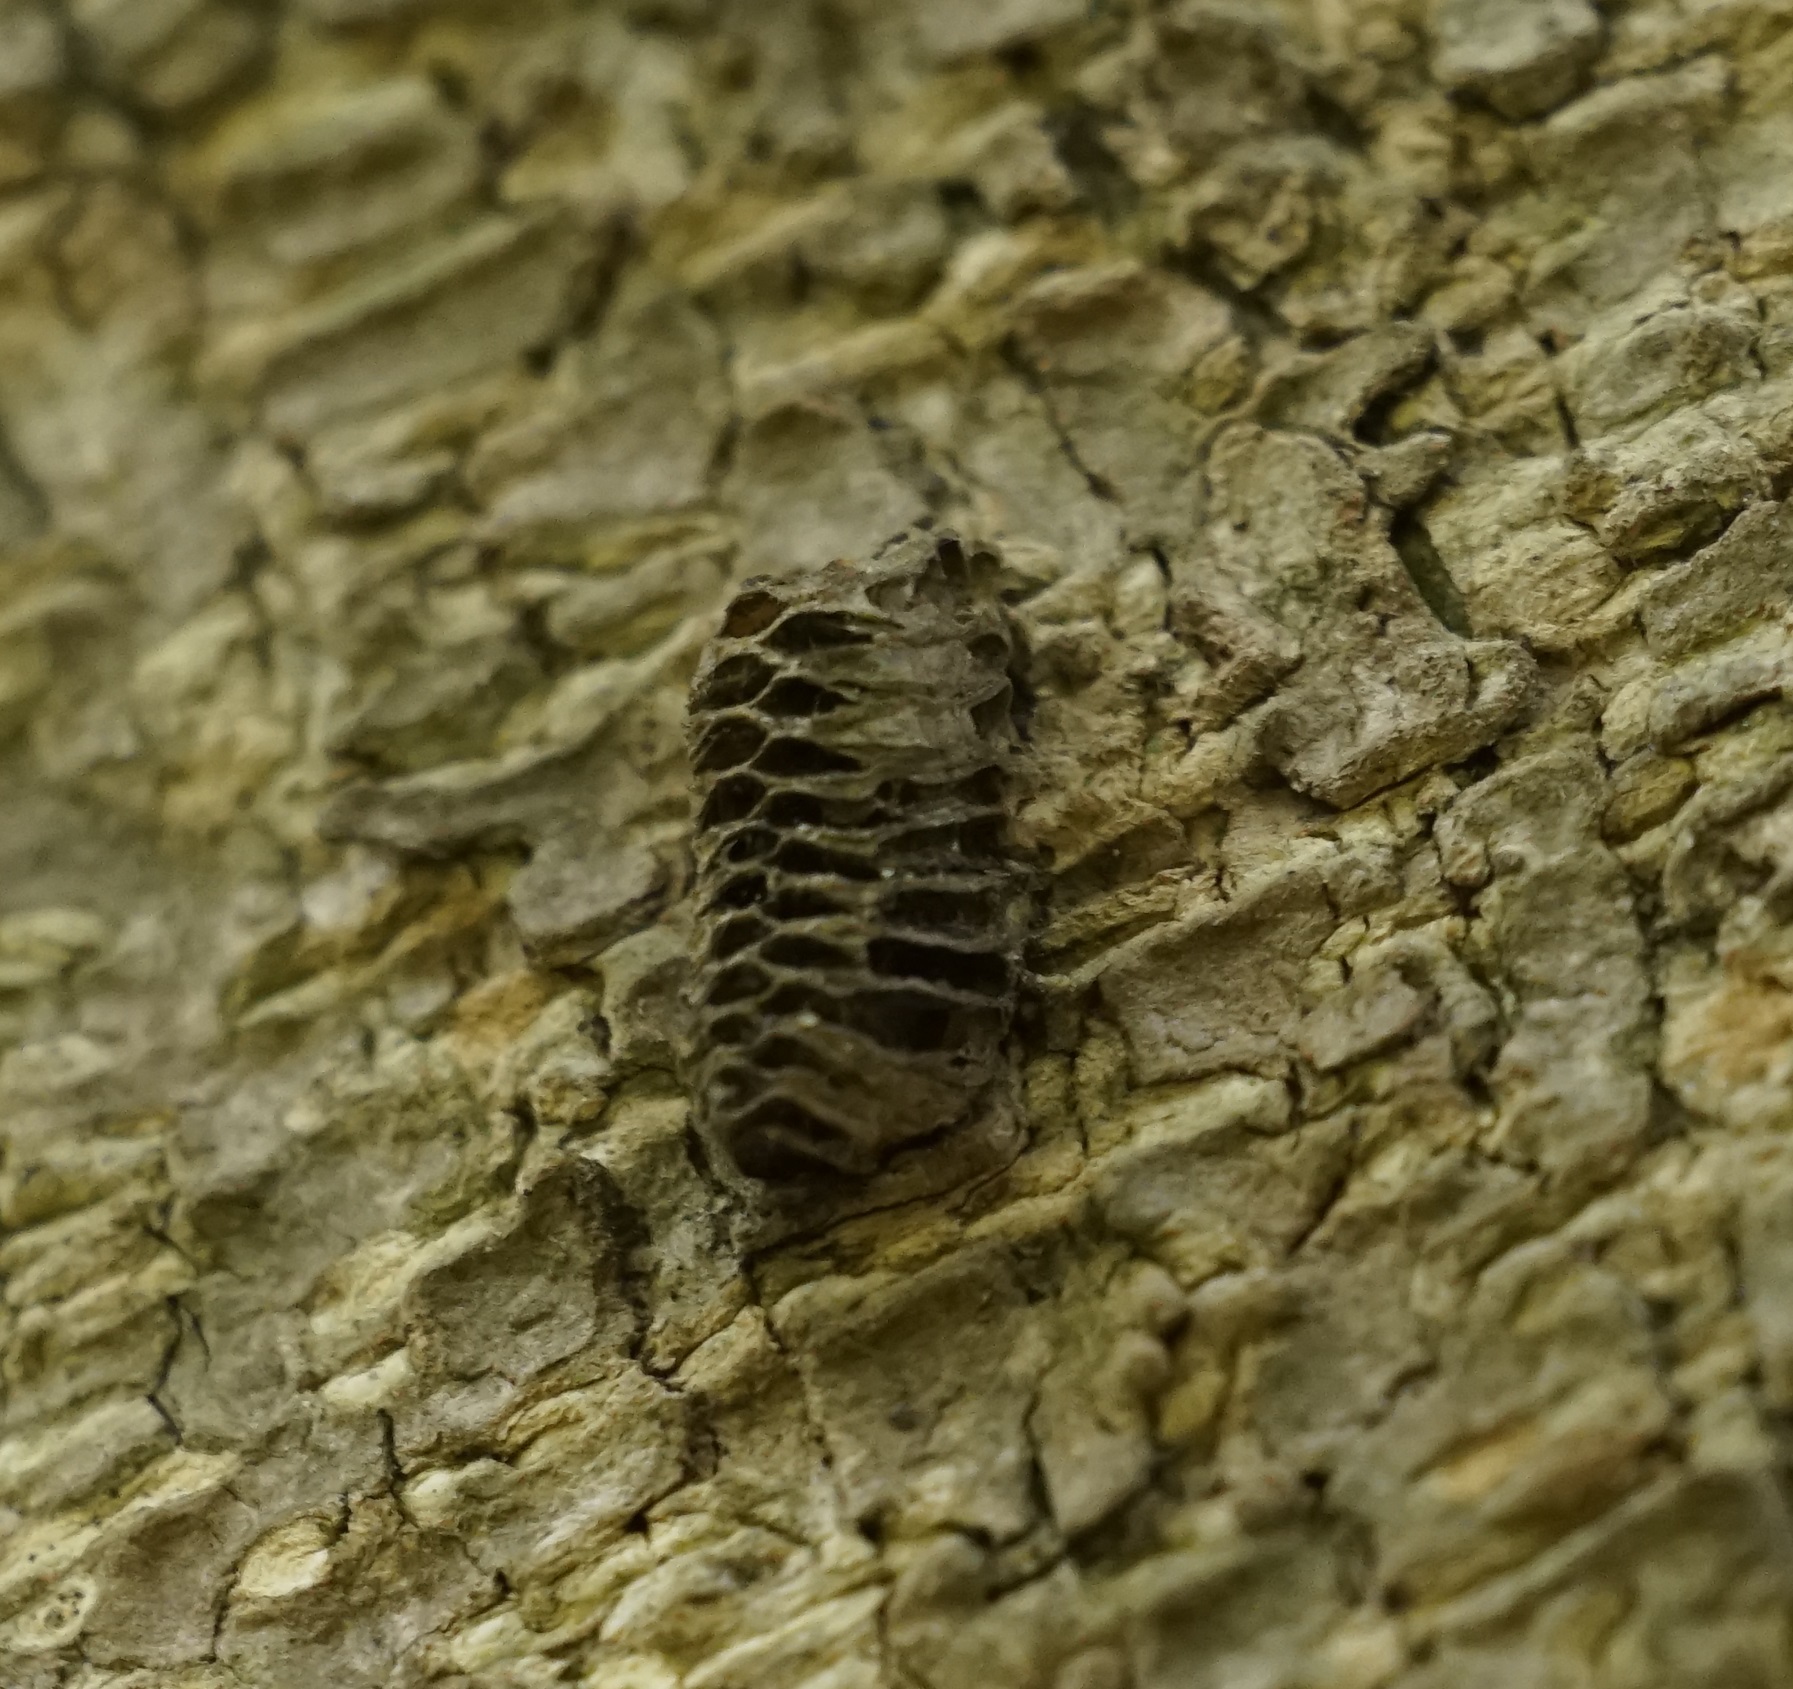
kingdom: Animalia
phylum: Arthropoda
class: Insecta
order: Mantodea
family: Mantidae
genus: Orthodera
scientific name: Orthodera ministralis
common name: Mantis
